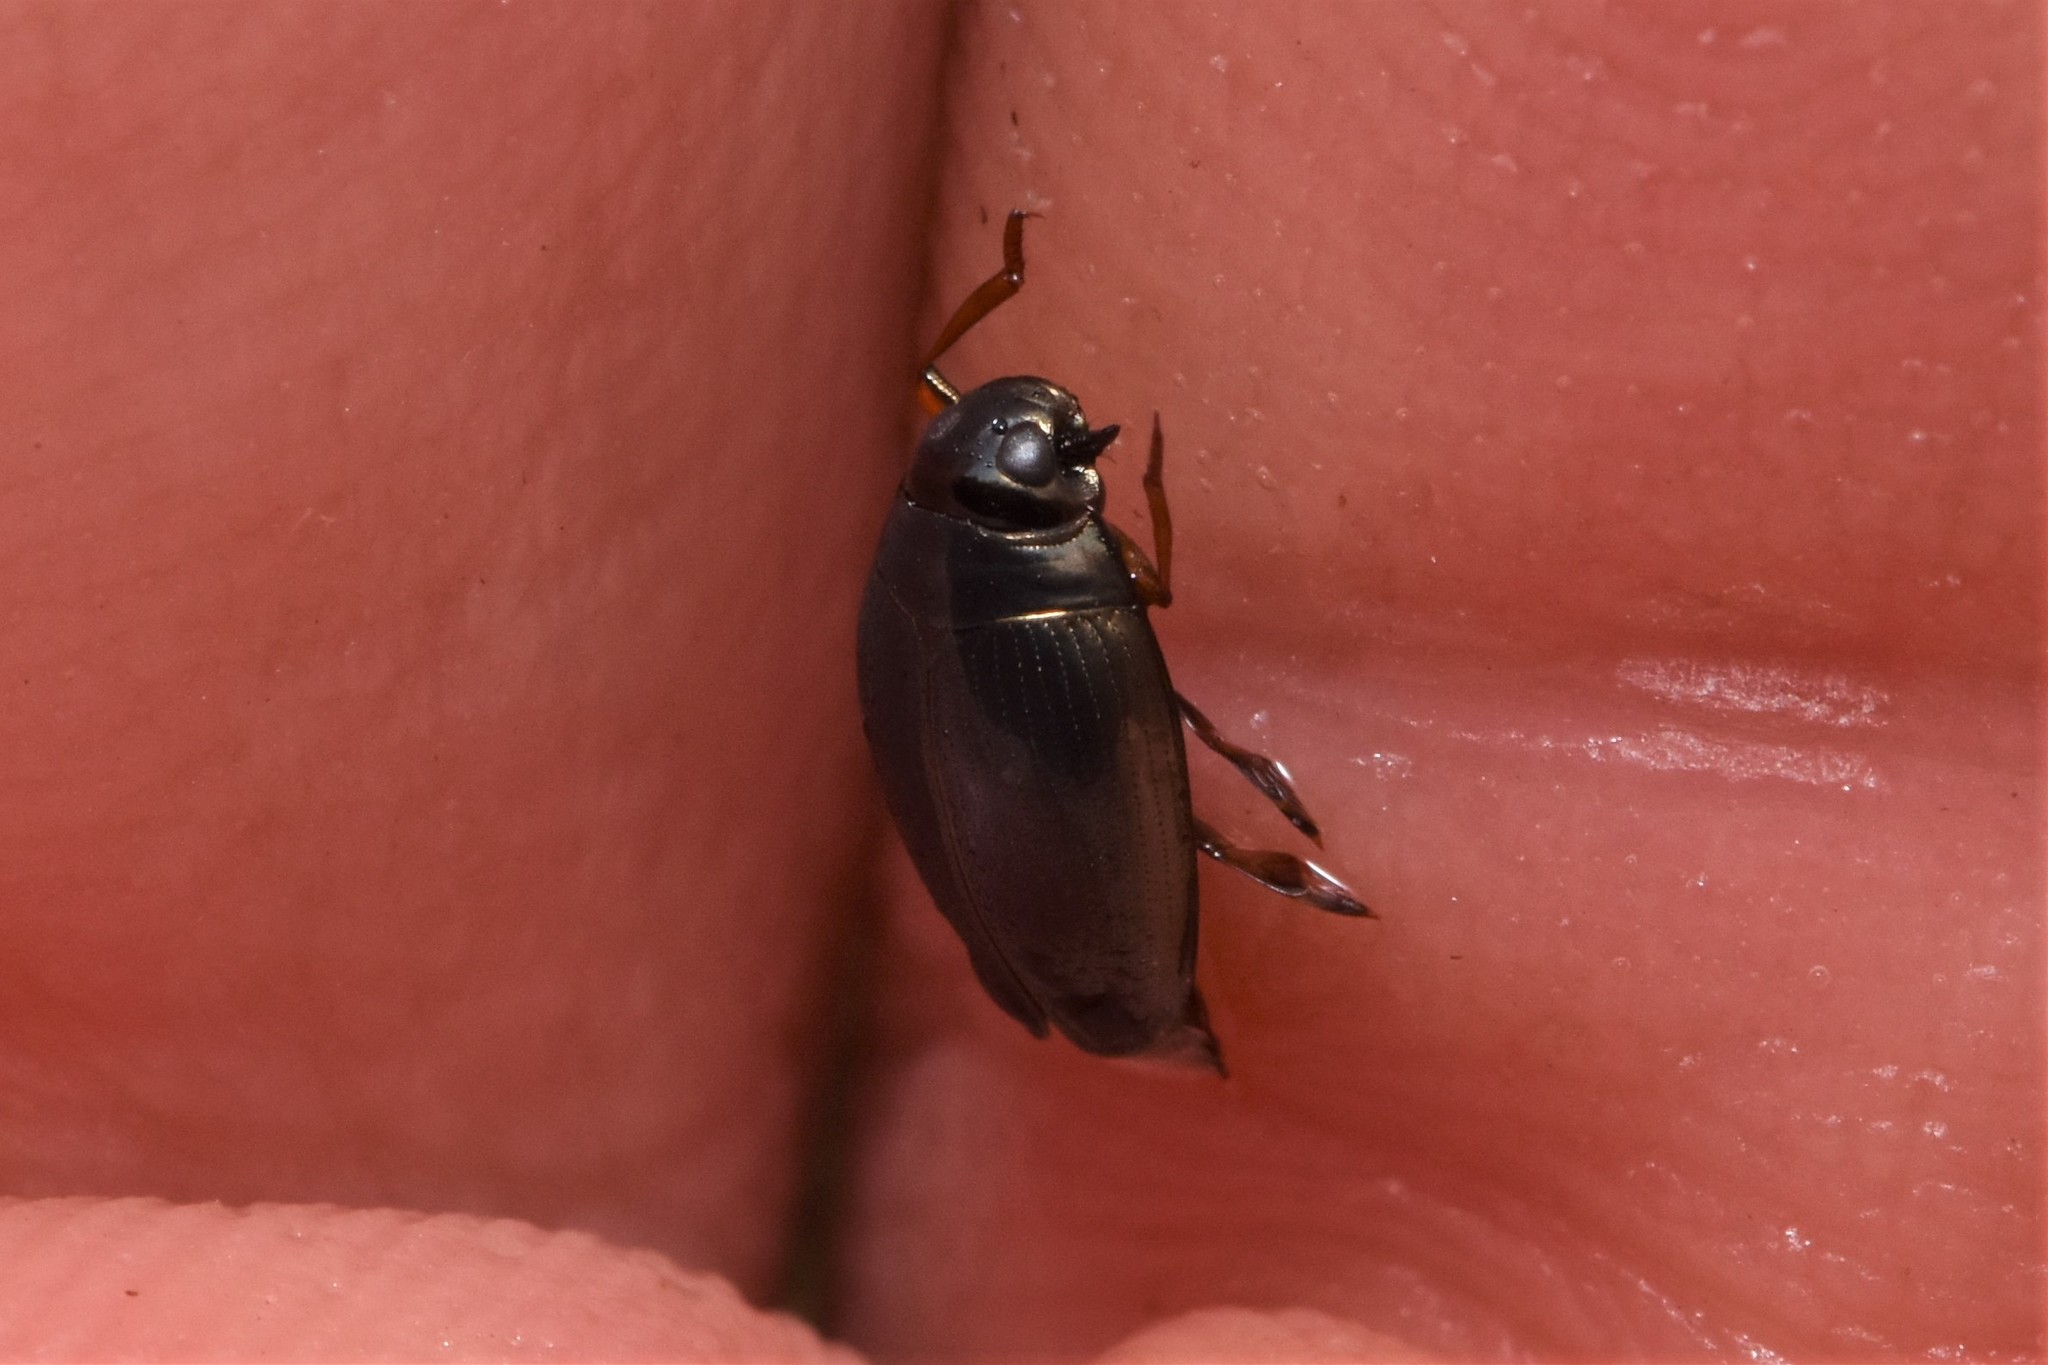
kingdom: Animalia
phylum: Arthropoda
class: Insecta
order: Coleoptera
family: Gyrinidae
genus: Gyrinus
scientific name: Gyrinus
